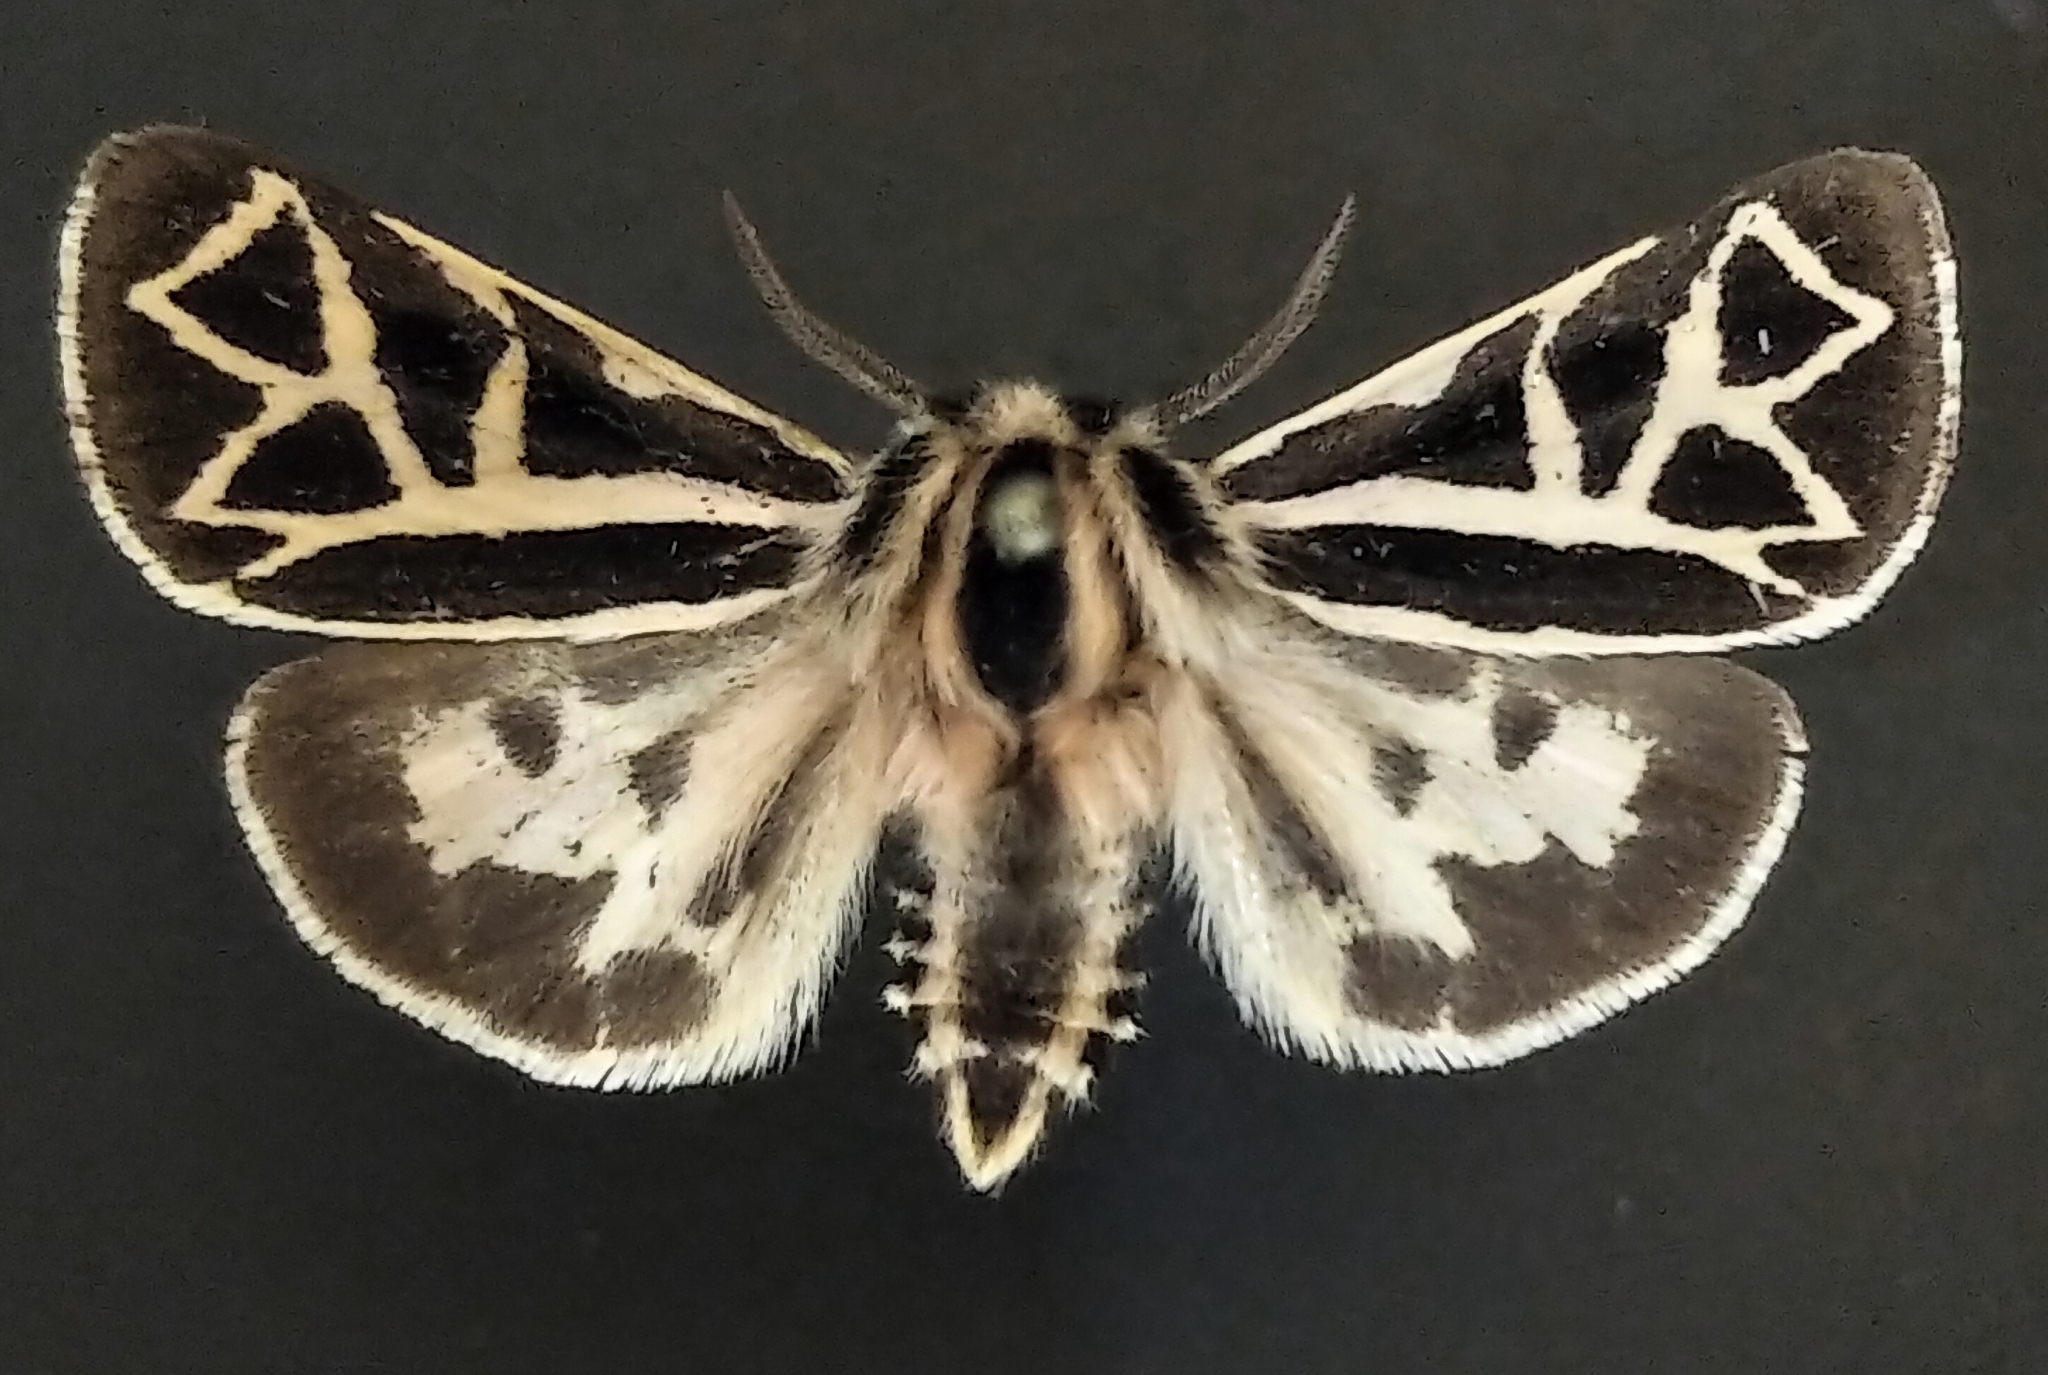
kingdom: Animalia
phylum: Arthropoda
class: Insecta
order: Lepidoptera
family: Erebidae
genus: Apantesis
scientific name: Apantesis
